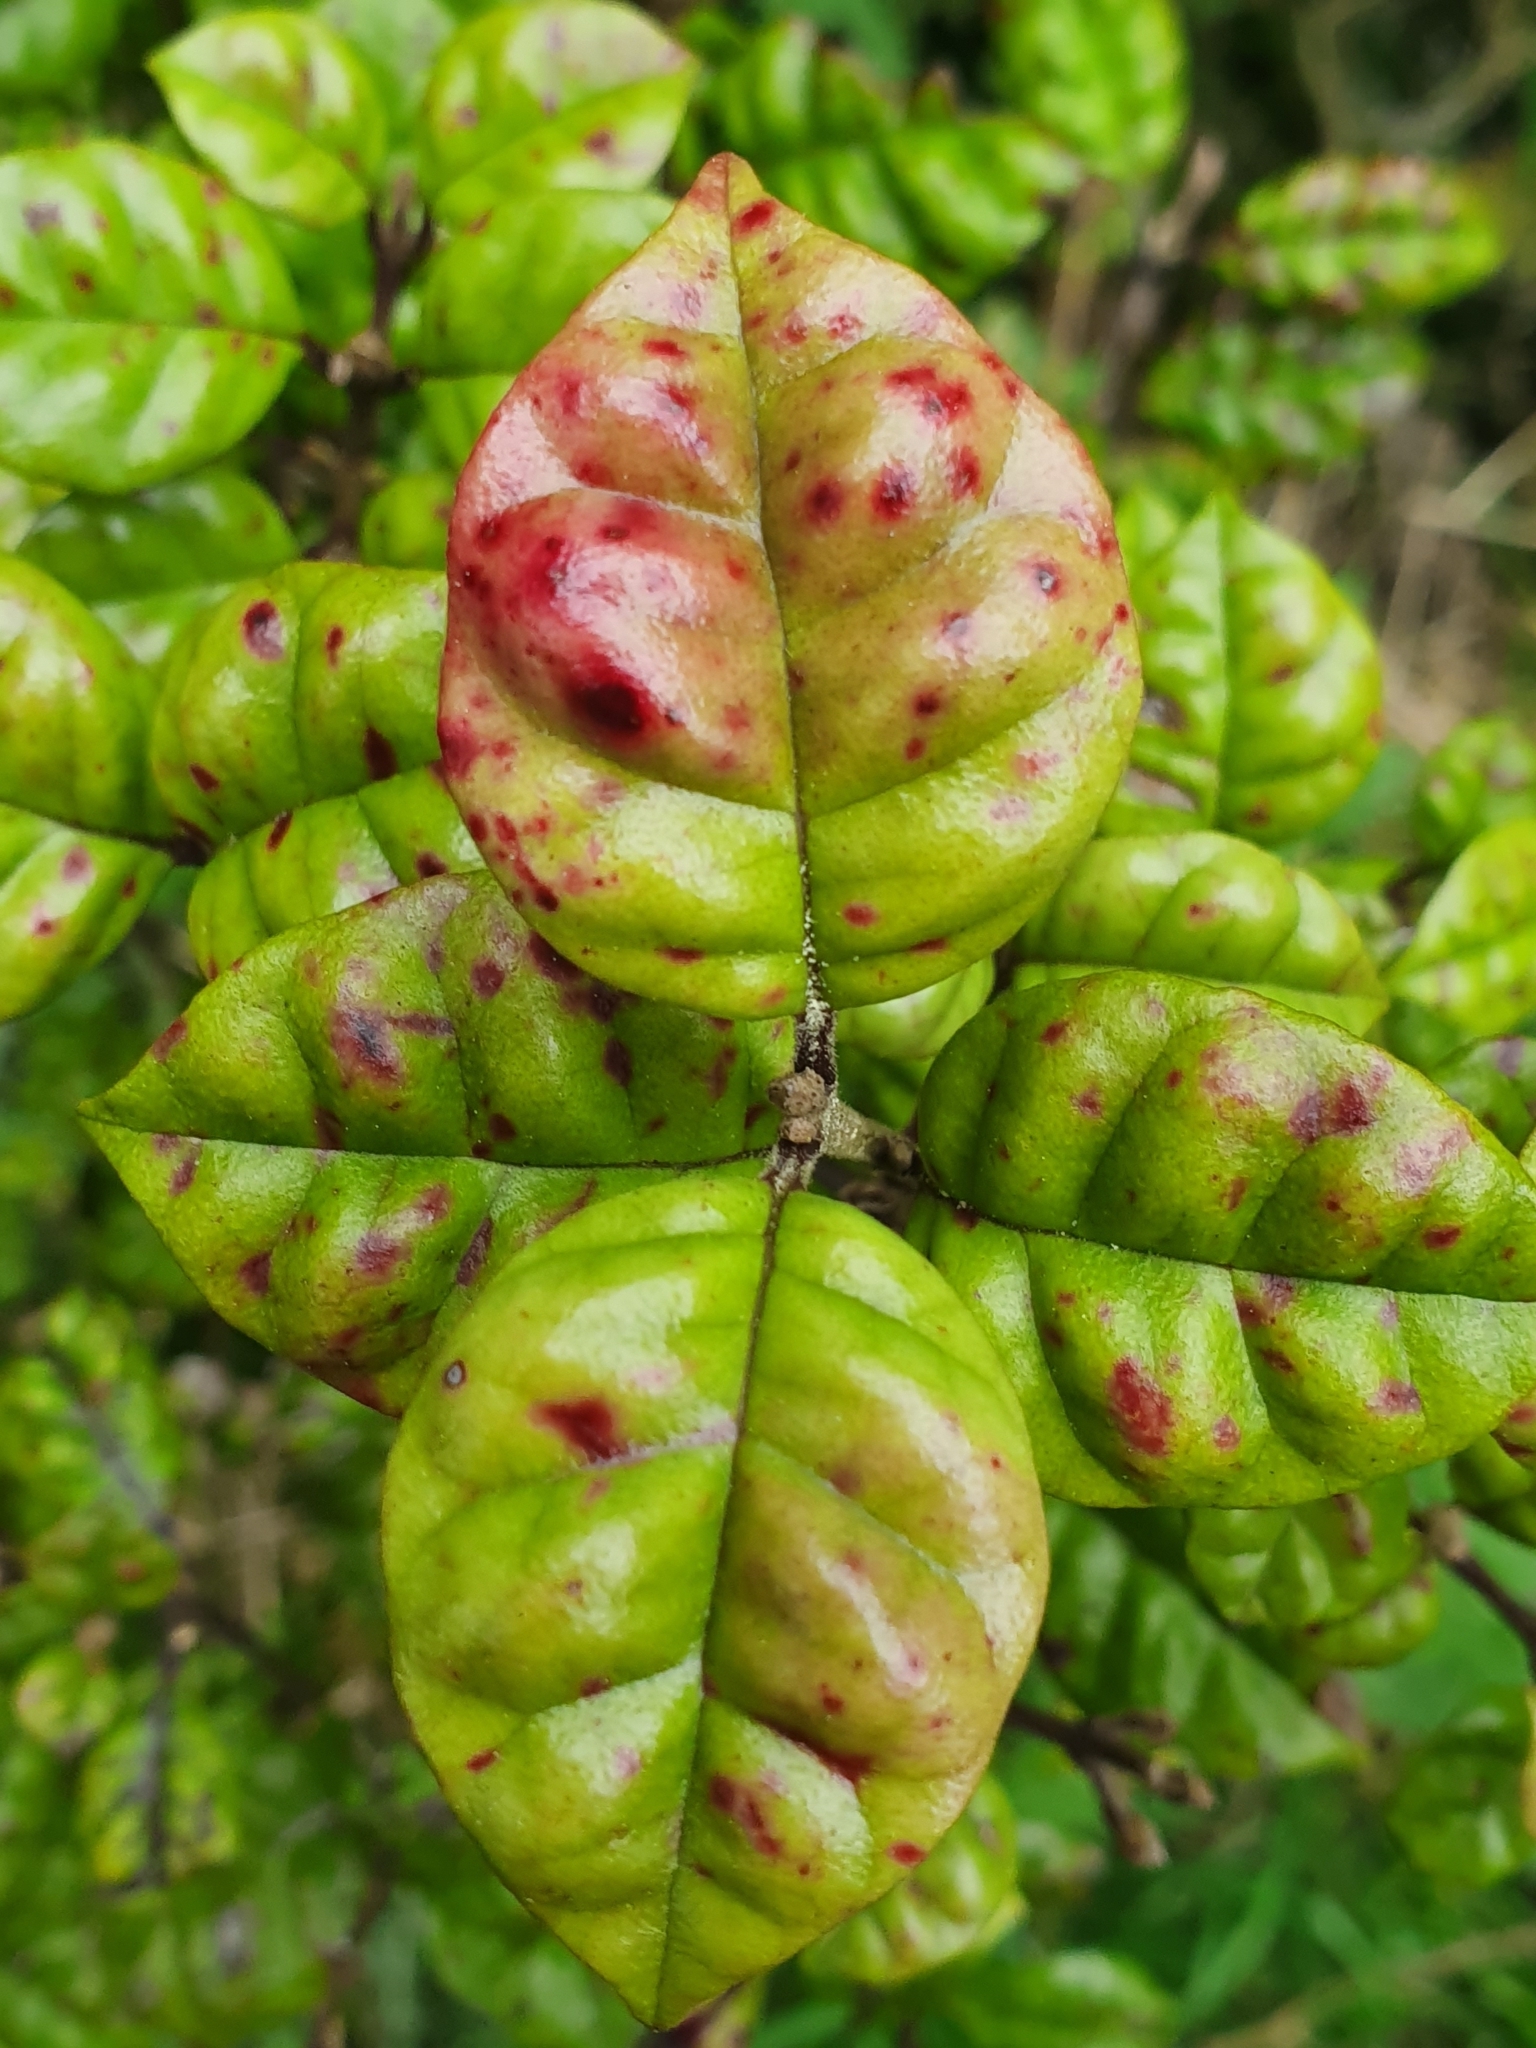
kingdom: Plantae
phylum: Tracheophyta
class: Magnoliopsida
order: Myrtales
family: Myrtaceae
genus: Lophomyrtus
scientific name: Lophomyrtus bullata
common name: Rama rama
